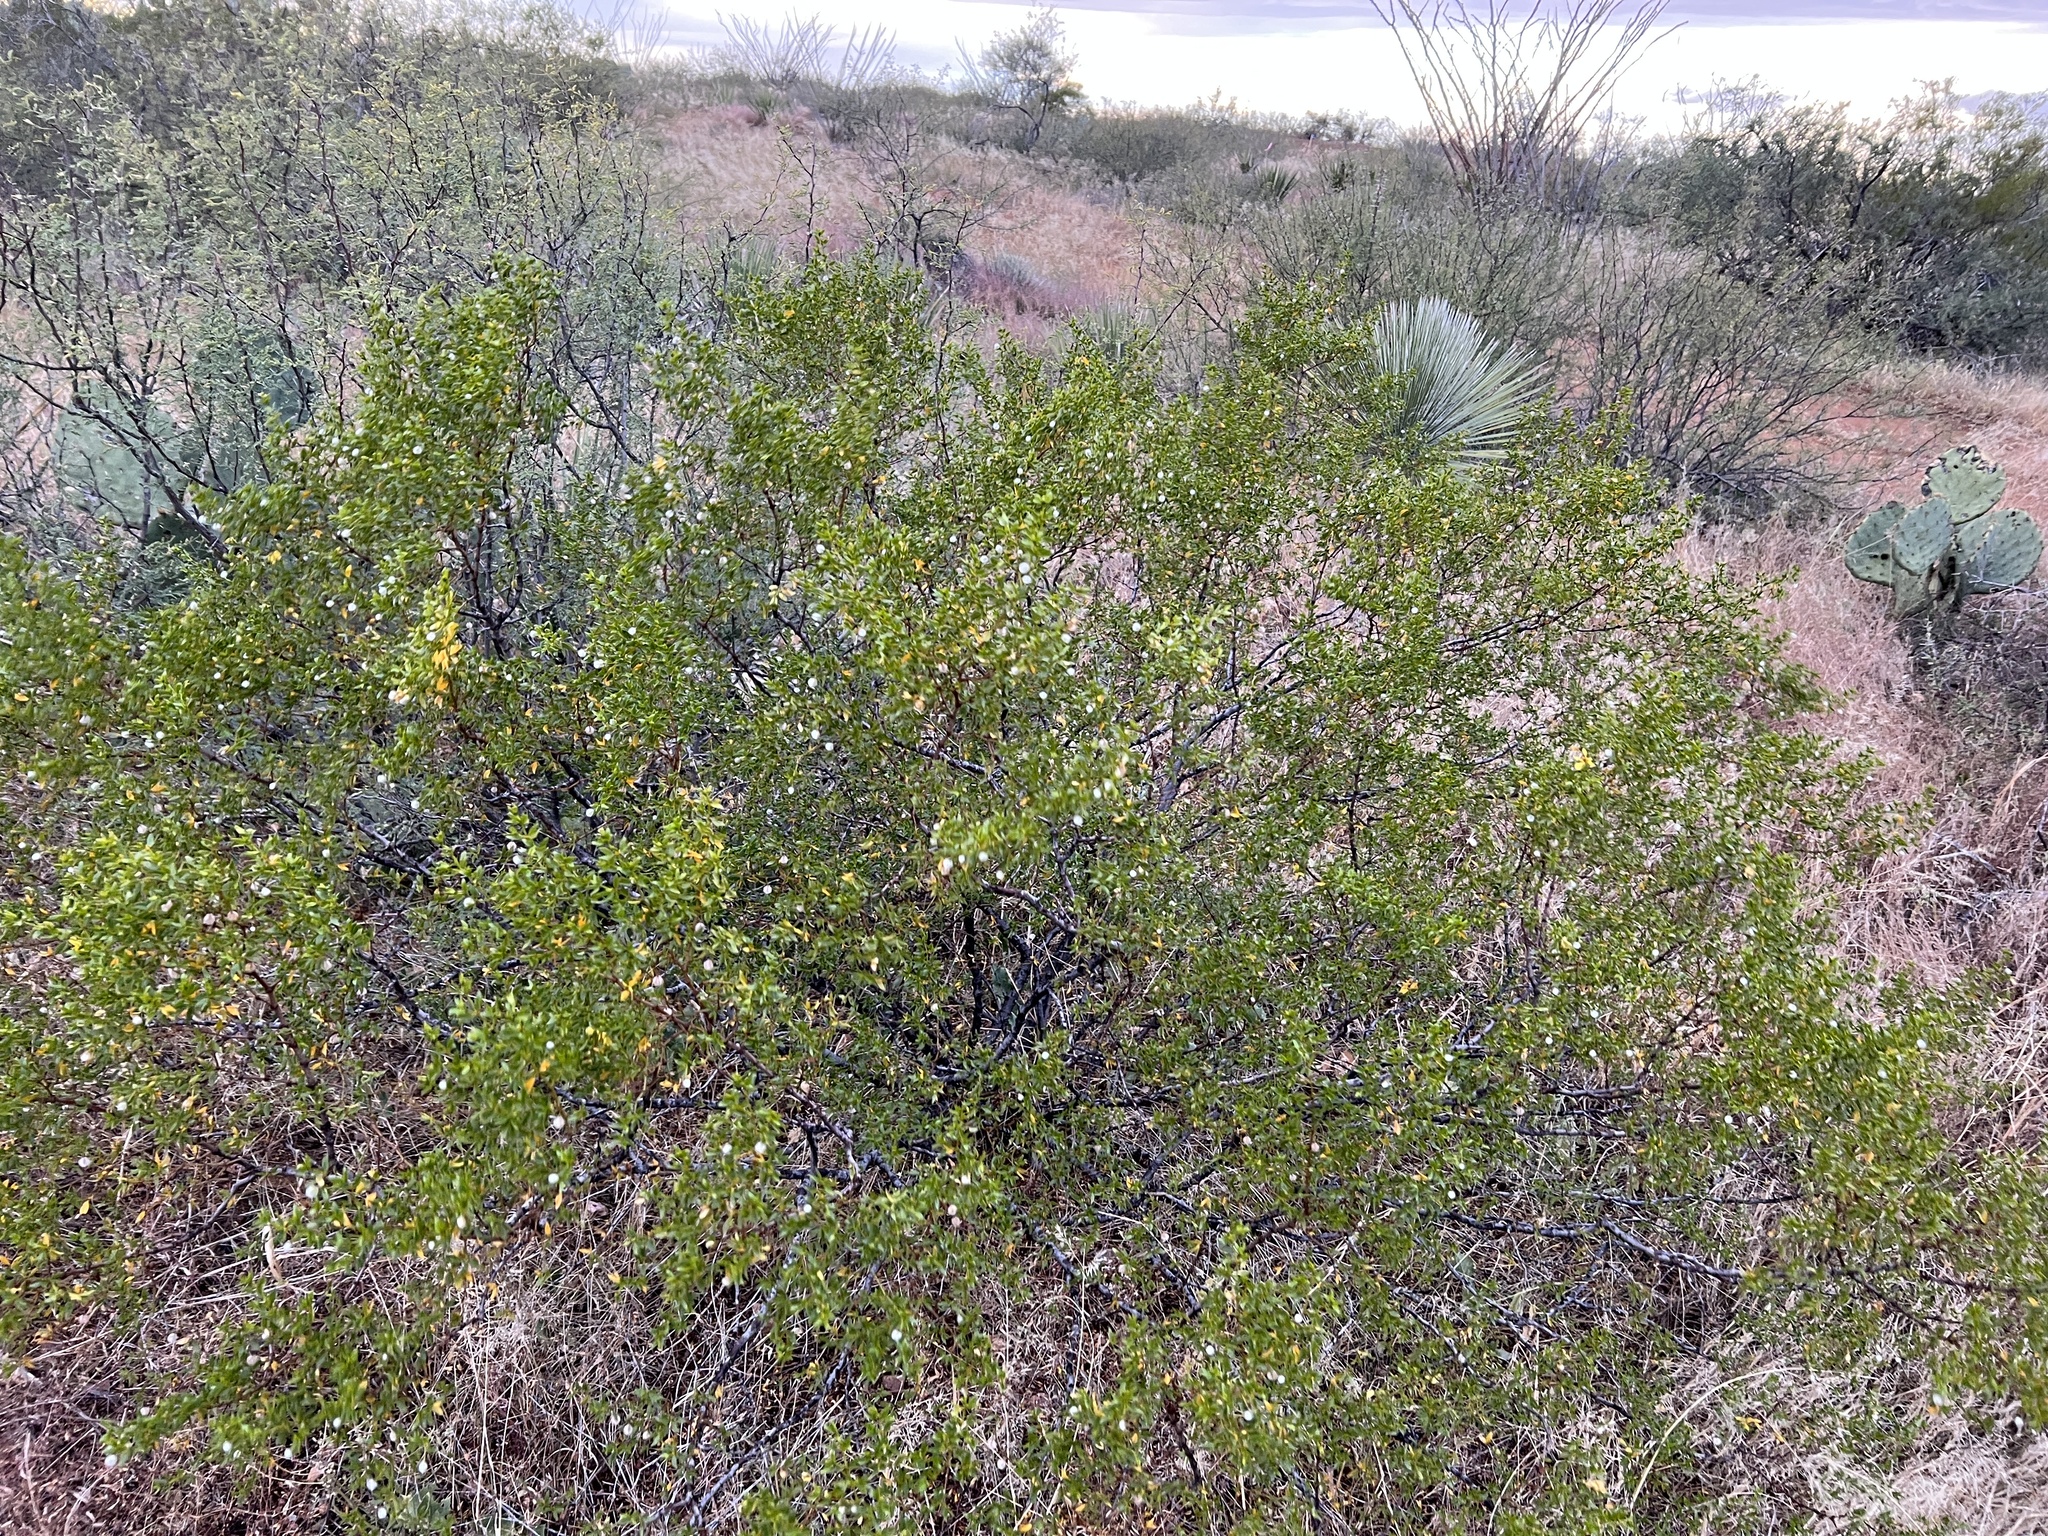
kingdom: Plantae
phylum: Tracheophyta
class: Magnoliopsida
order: Zygophyllales
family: Zygophyllaceae
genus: Larrea
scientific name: Larrea tridentata
